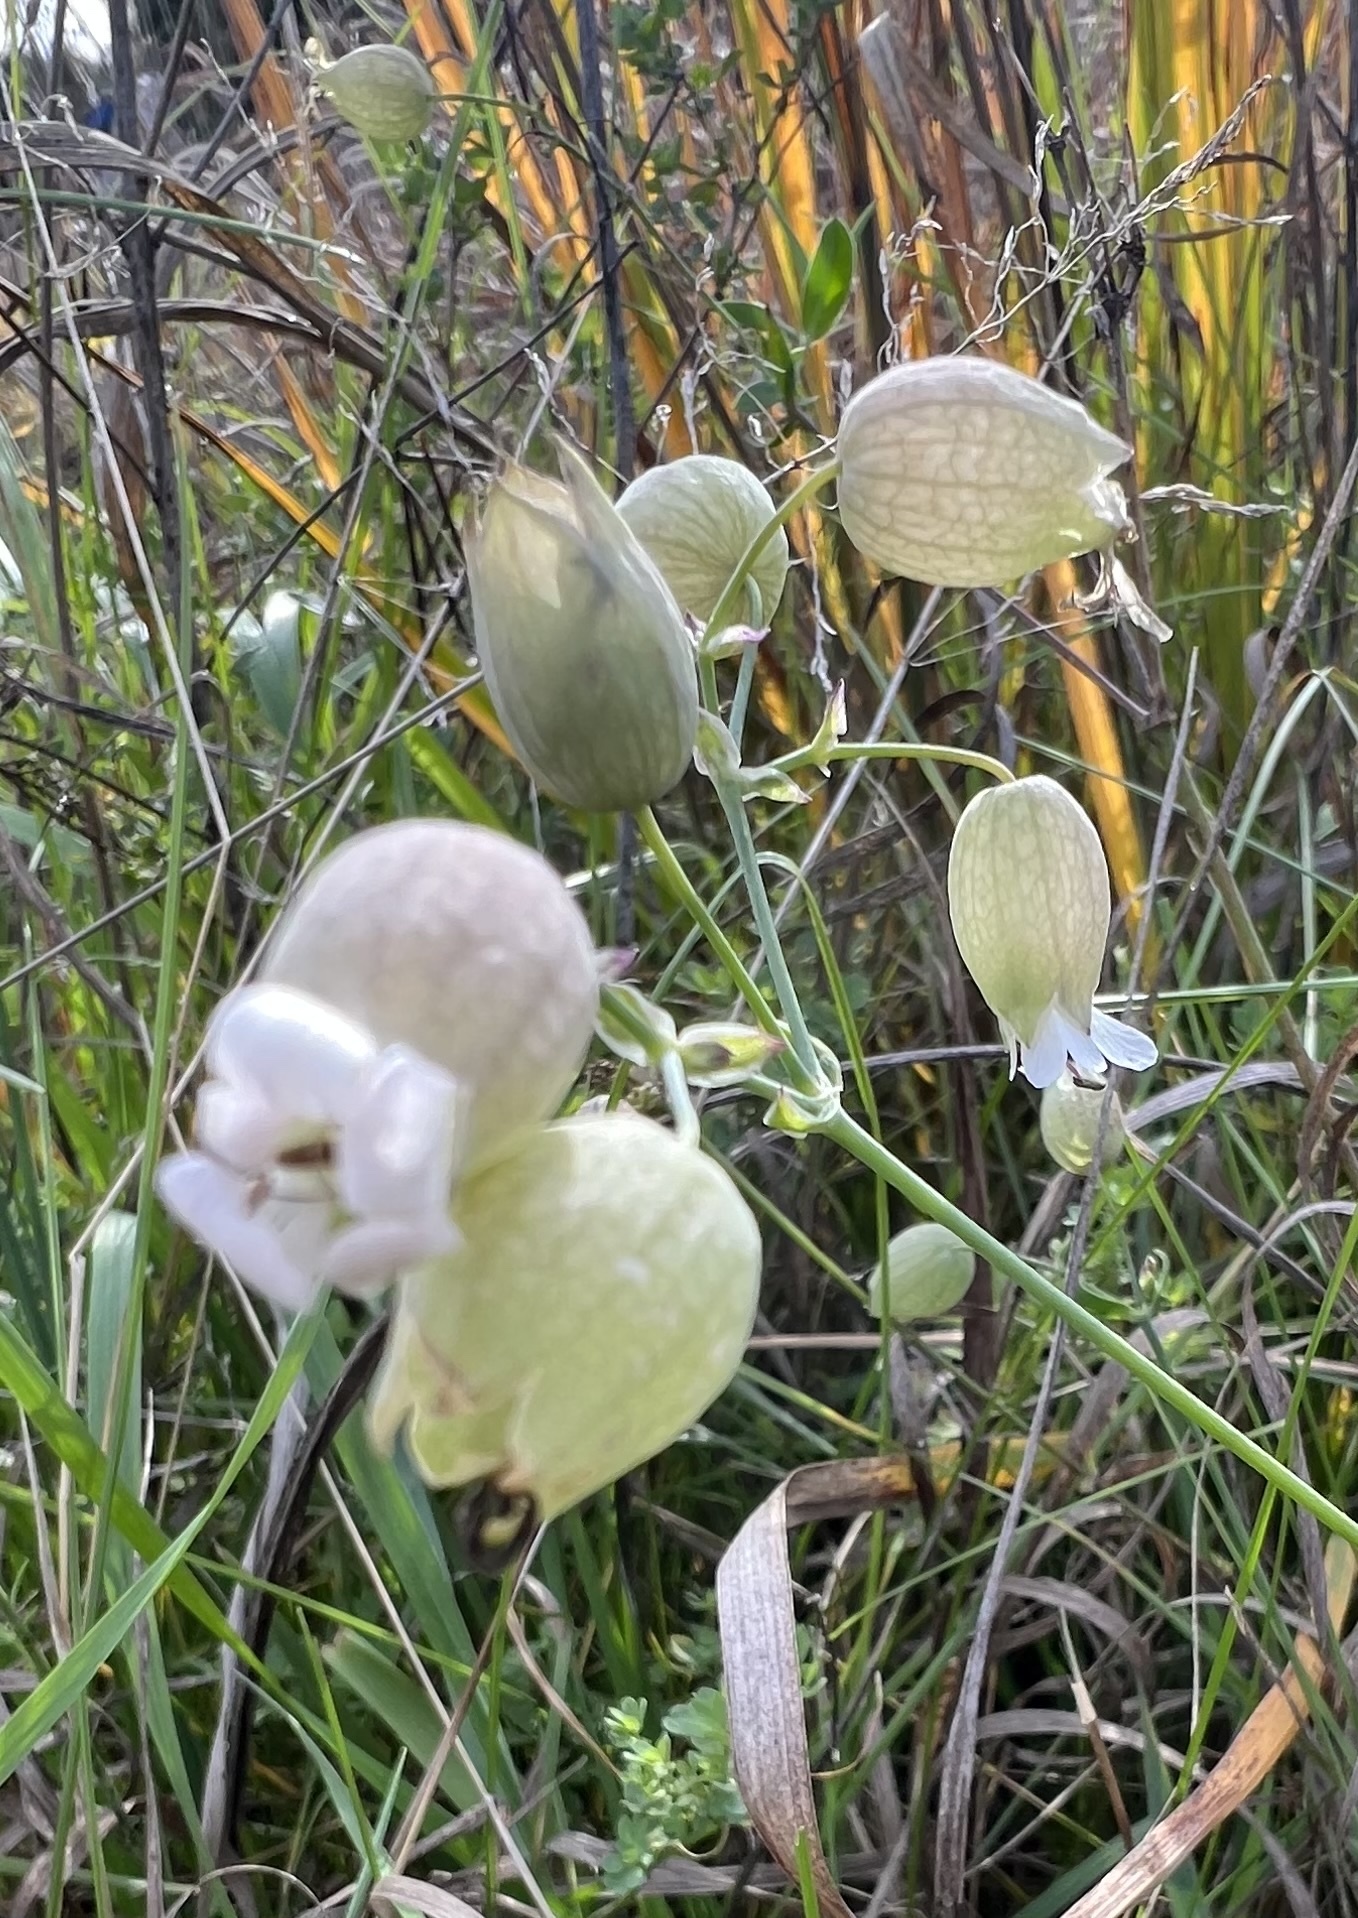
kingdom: Plantae
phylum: Tracheophyta
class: Magnoliopsida
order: Caryophyllales
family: Caryophyllaceae
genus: Silene
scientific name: Silene vulgaris
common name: Bladder campion
